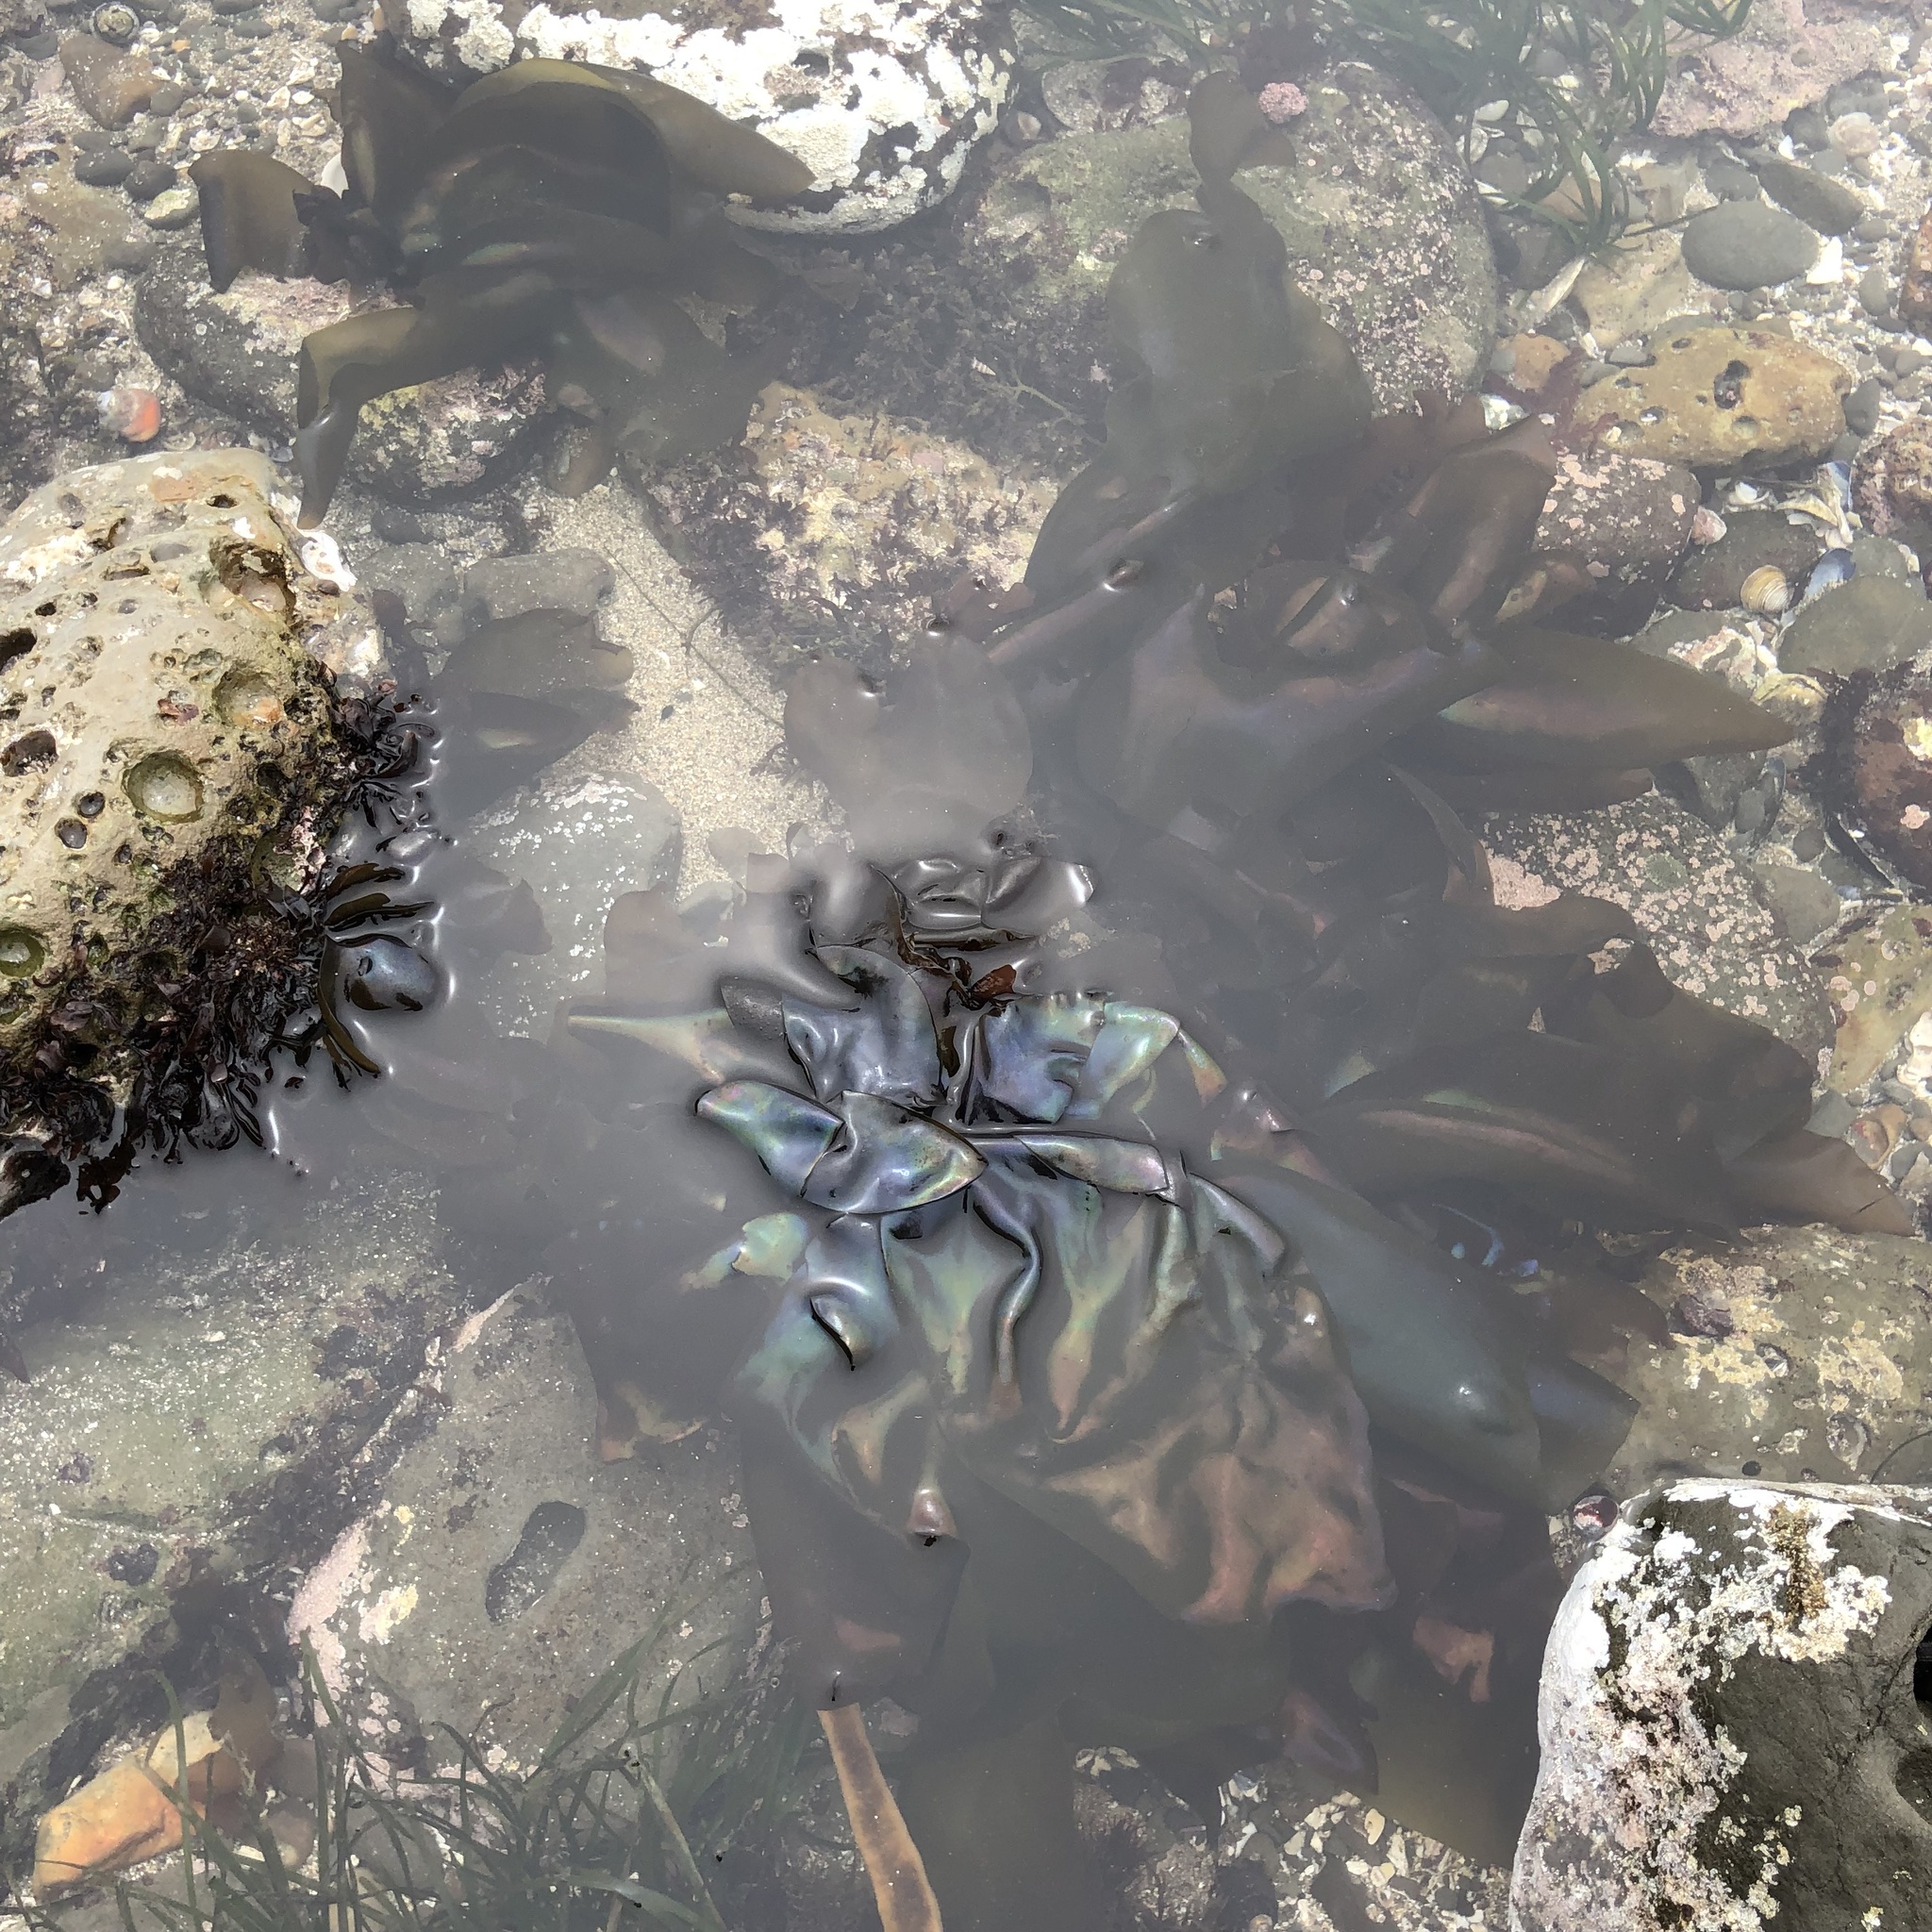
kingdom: Plantae
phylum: Rhodophyta
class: Florideophyceae
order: Gigartinales
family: Gigartinaceae
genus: Mazzaella
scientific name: Mazzaella splendens
